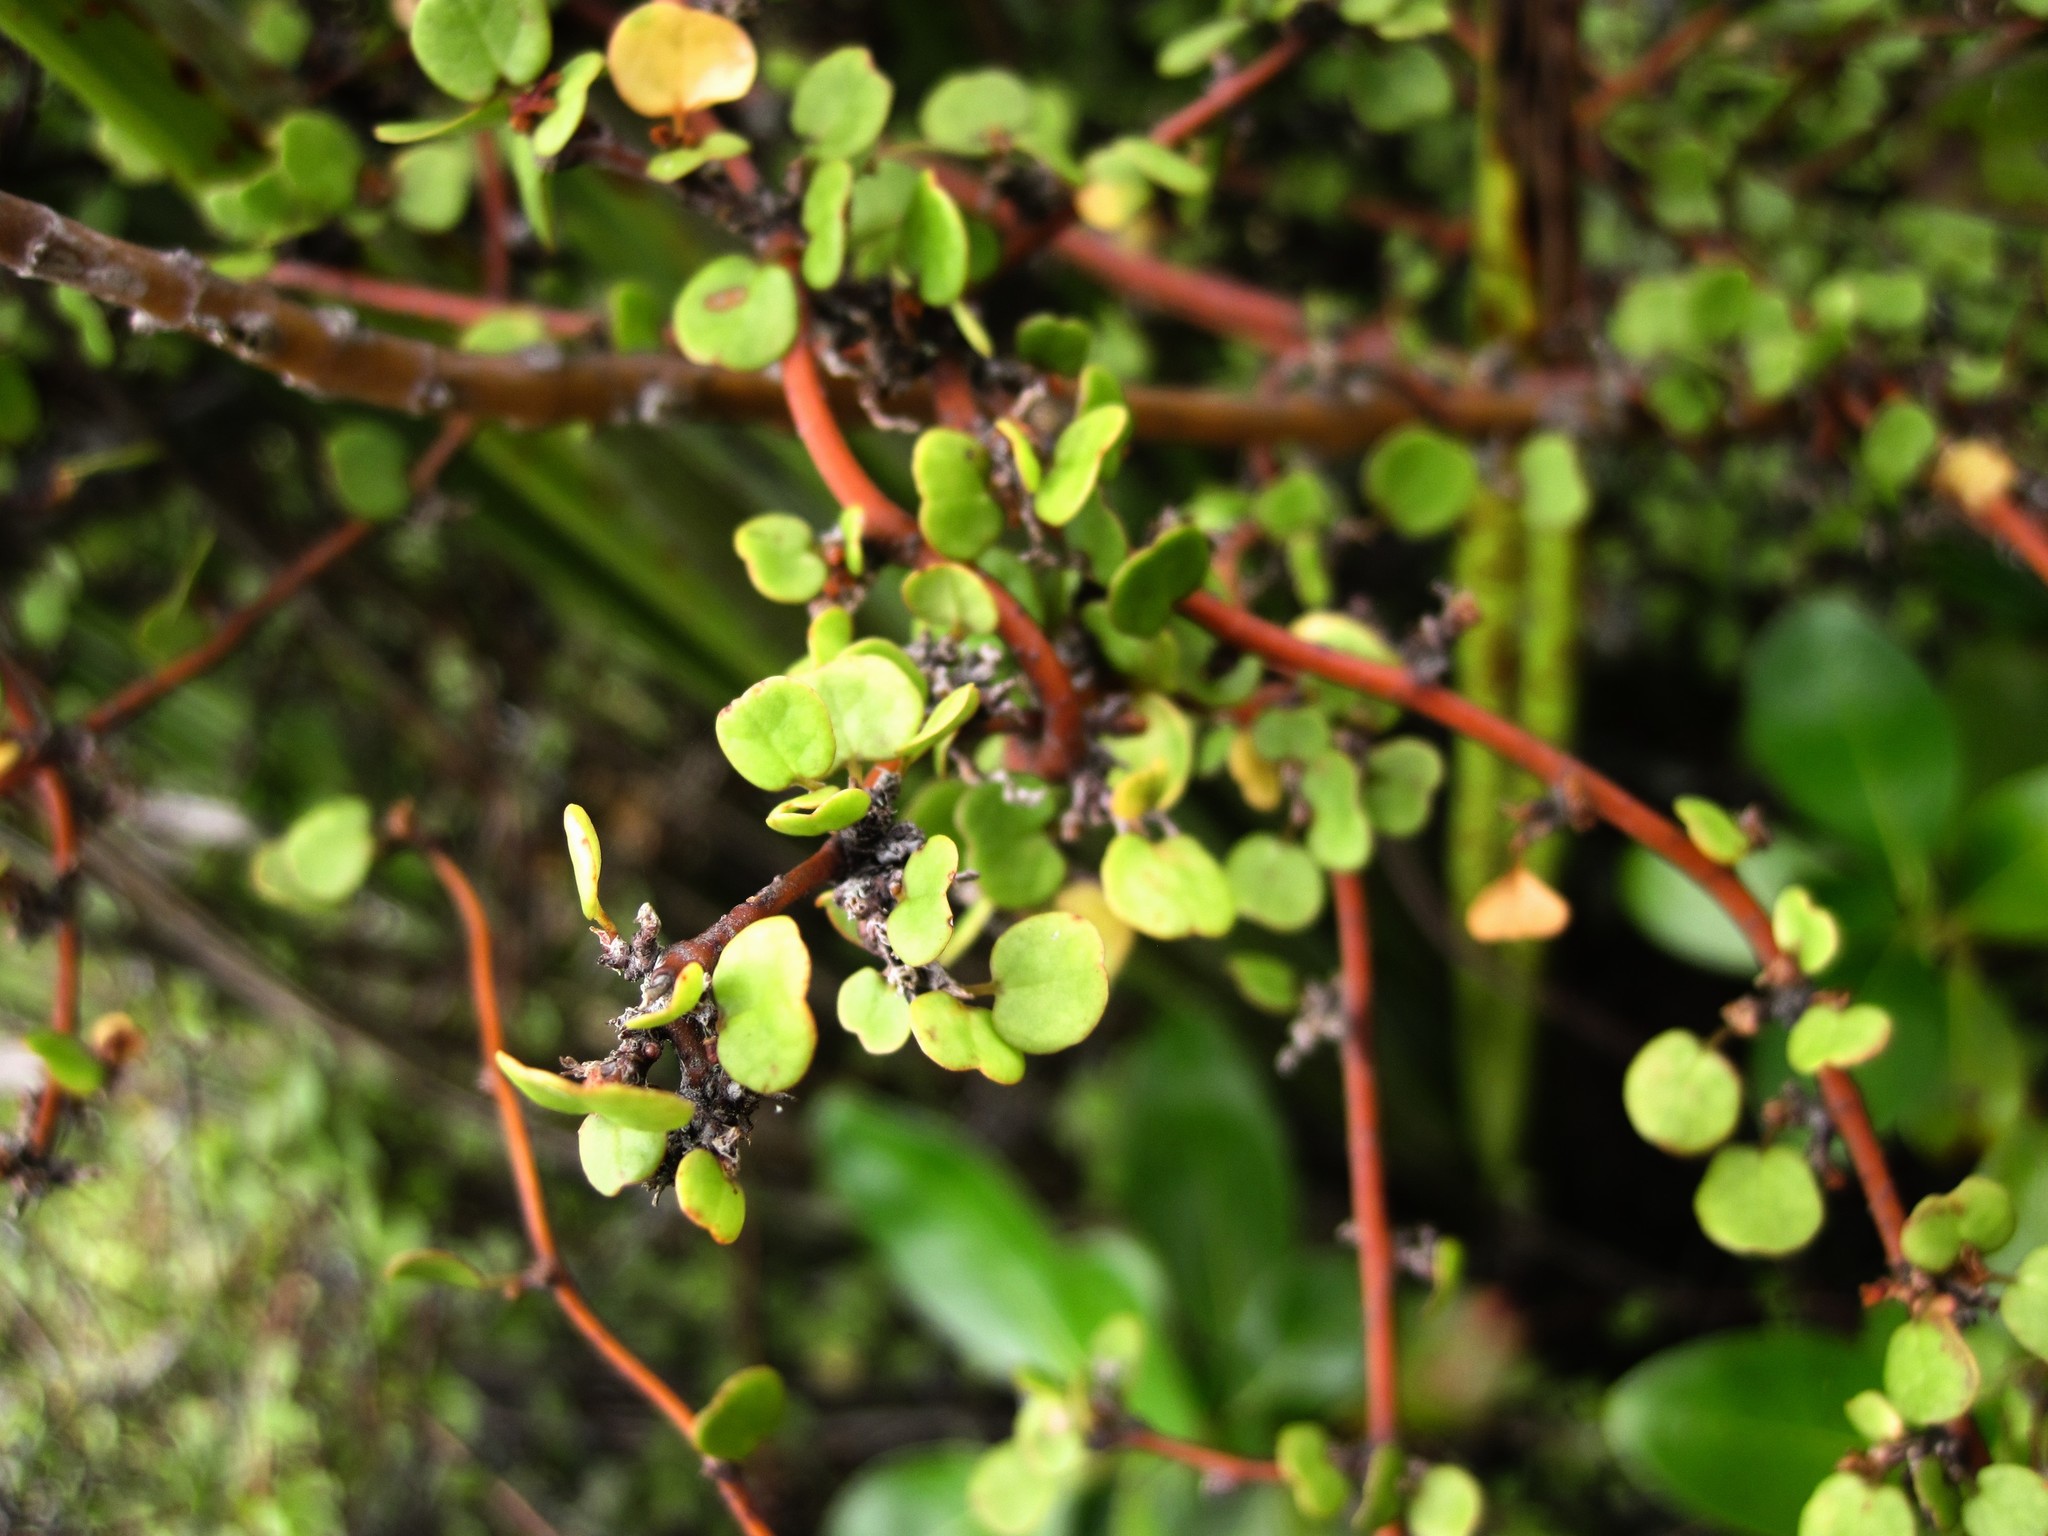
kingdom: Plantae
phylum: Tracheophyta
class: Magnoliopsida
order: Caryophyllales
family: Polygonaceae
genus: Muehlenbeckia
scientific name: Muehlenbeckia complexa
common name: Wireplant
